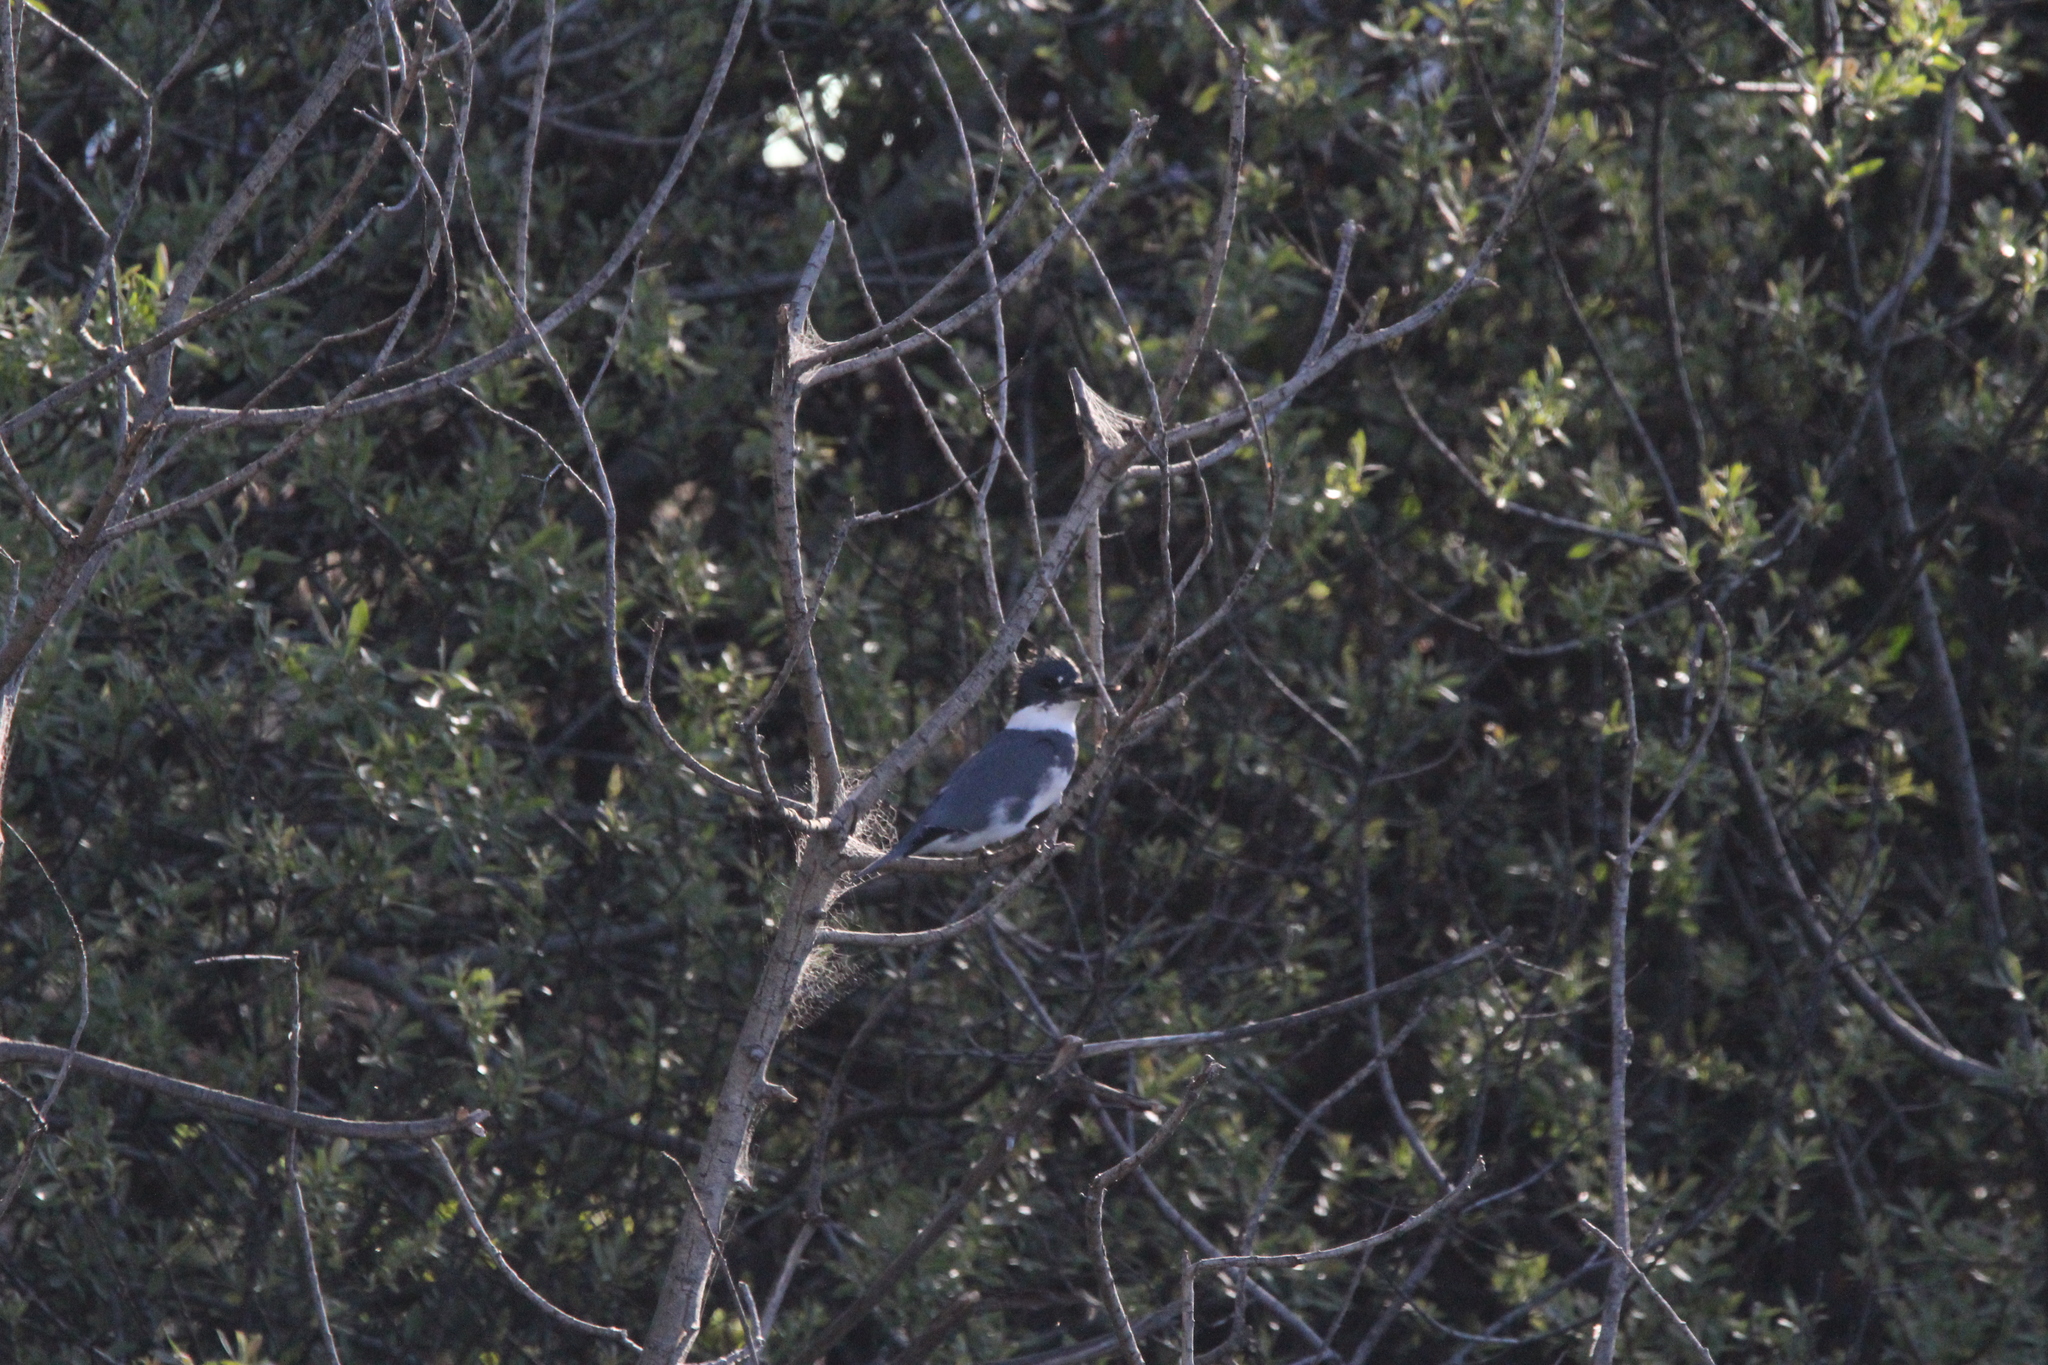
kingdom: Animalia
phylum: Chordata
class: Aves
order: Coraciiformes
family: Alcedinidae
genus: Megaceryle
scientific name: Megaceryle alcyon
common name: Belted kingfisher
